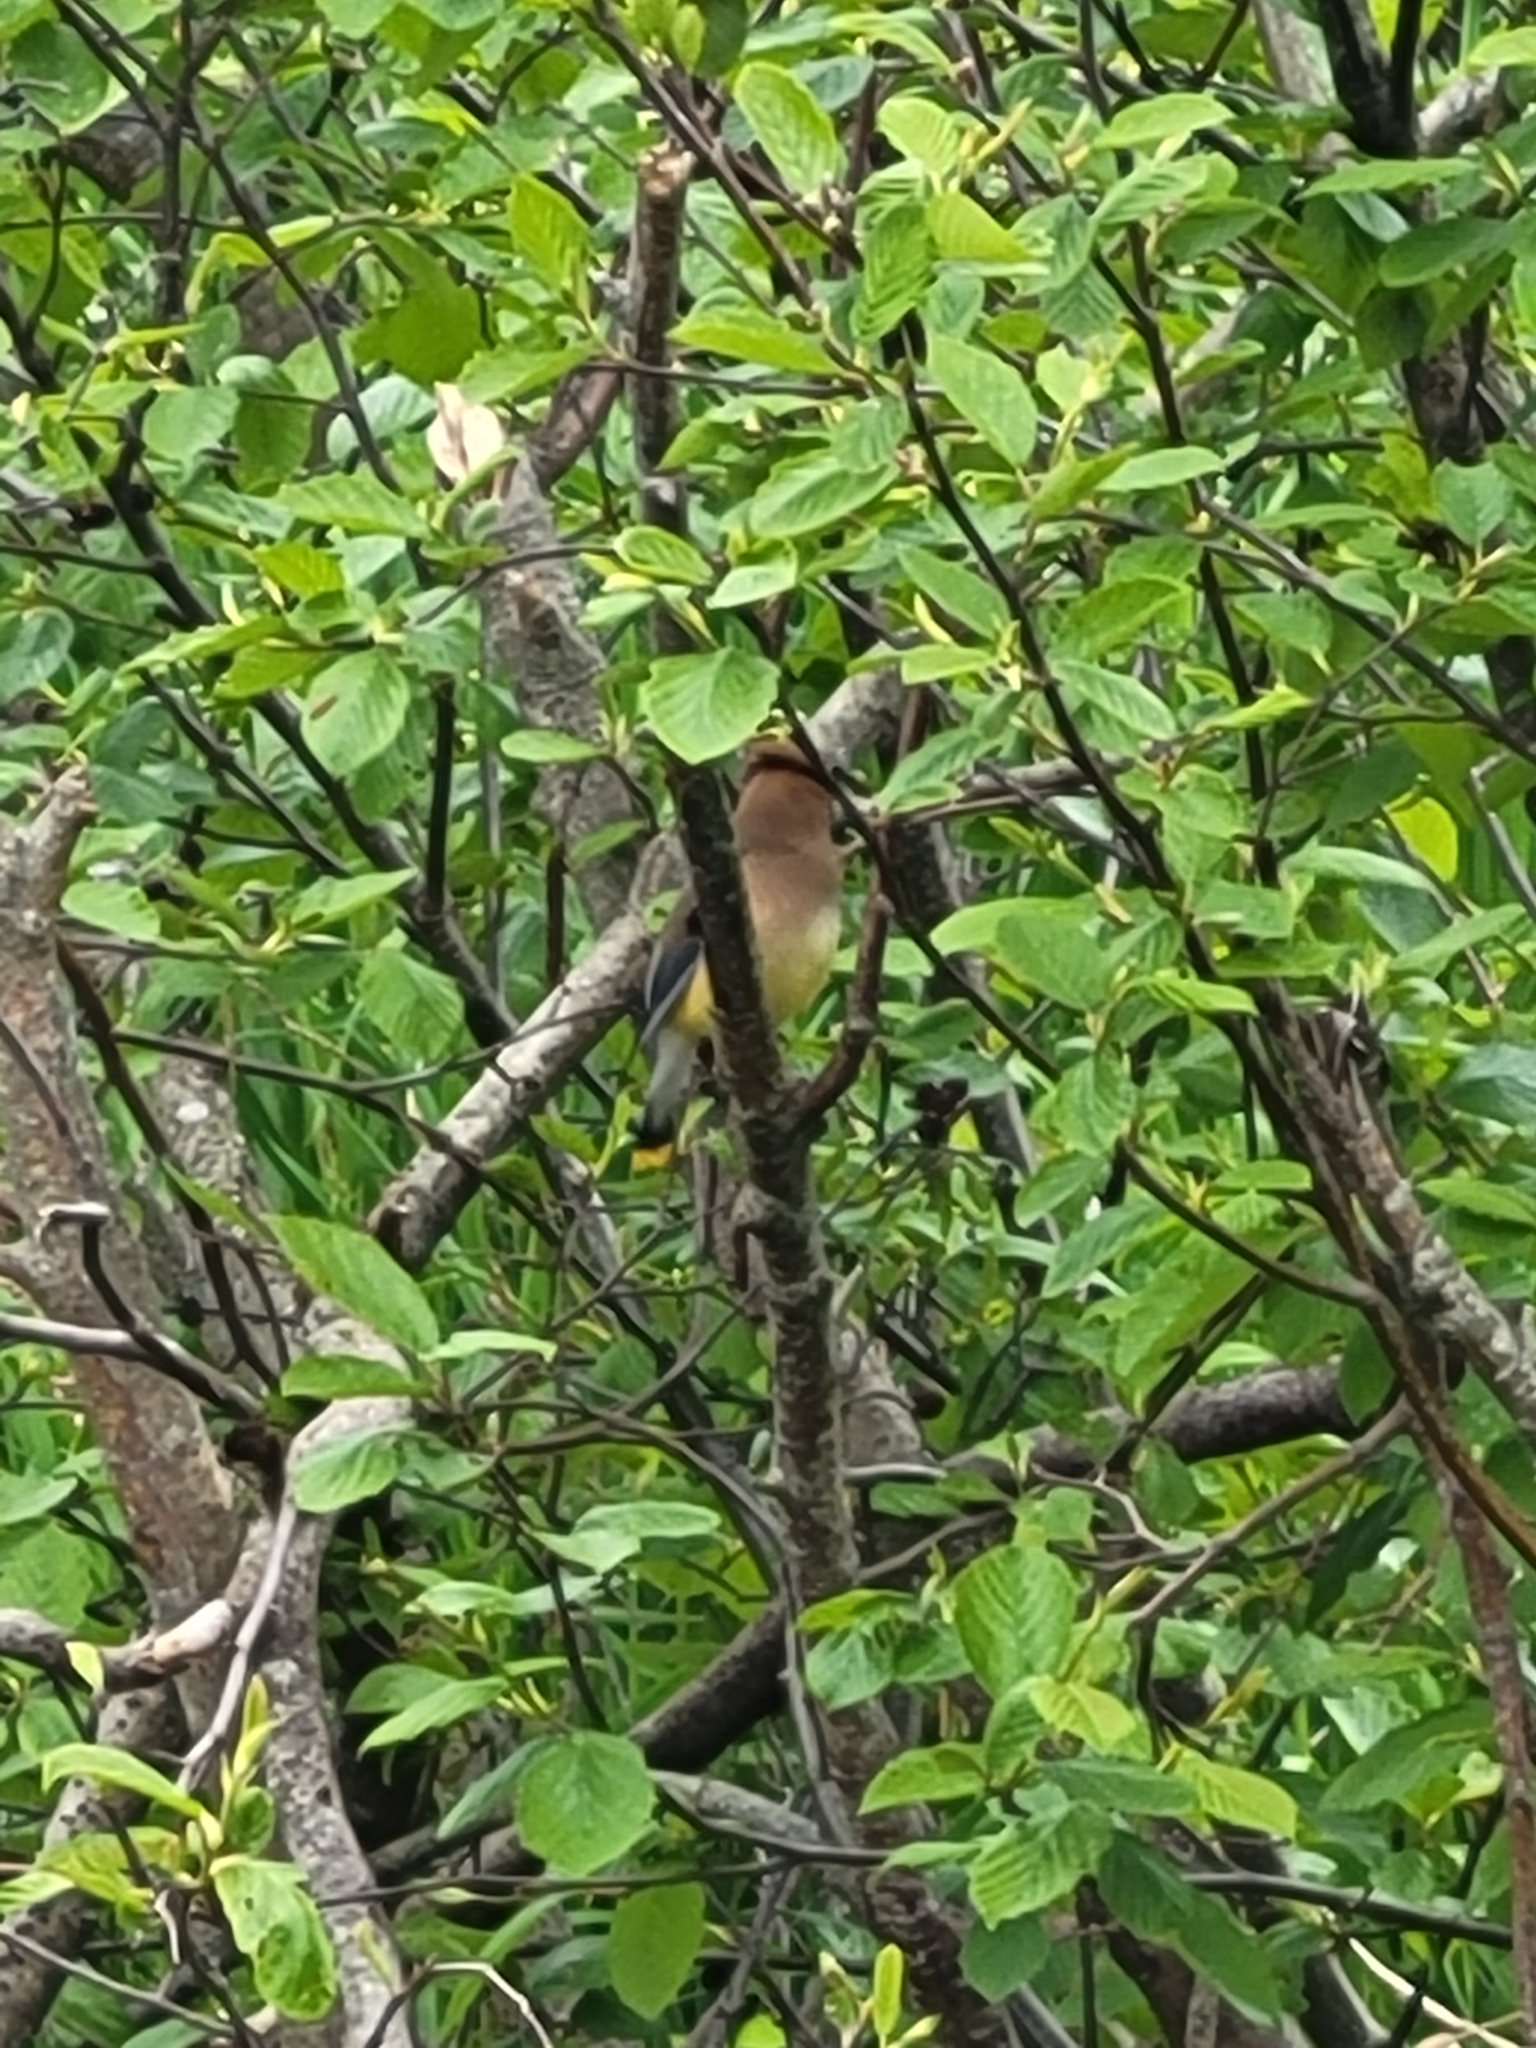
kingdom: Animalia
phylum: Chordata
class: Aves
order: Passeriformes
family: Bombycillidae
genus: Bombycilla
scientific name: Bombycilla cedrorum
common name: Cedar waxwing
